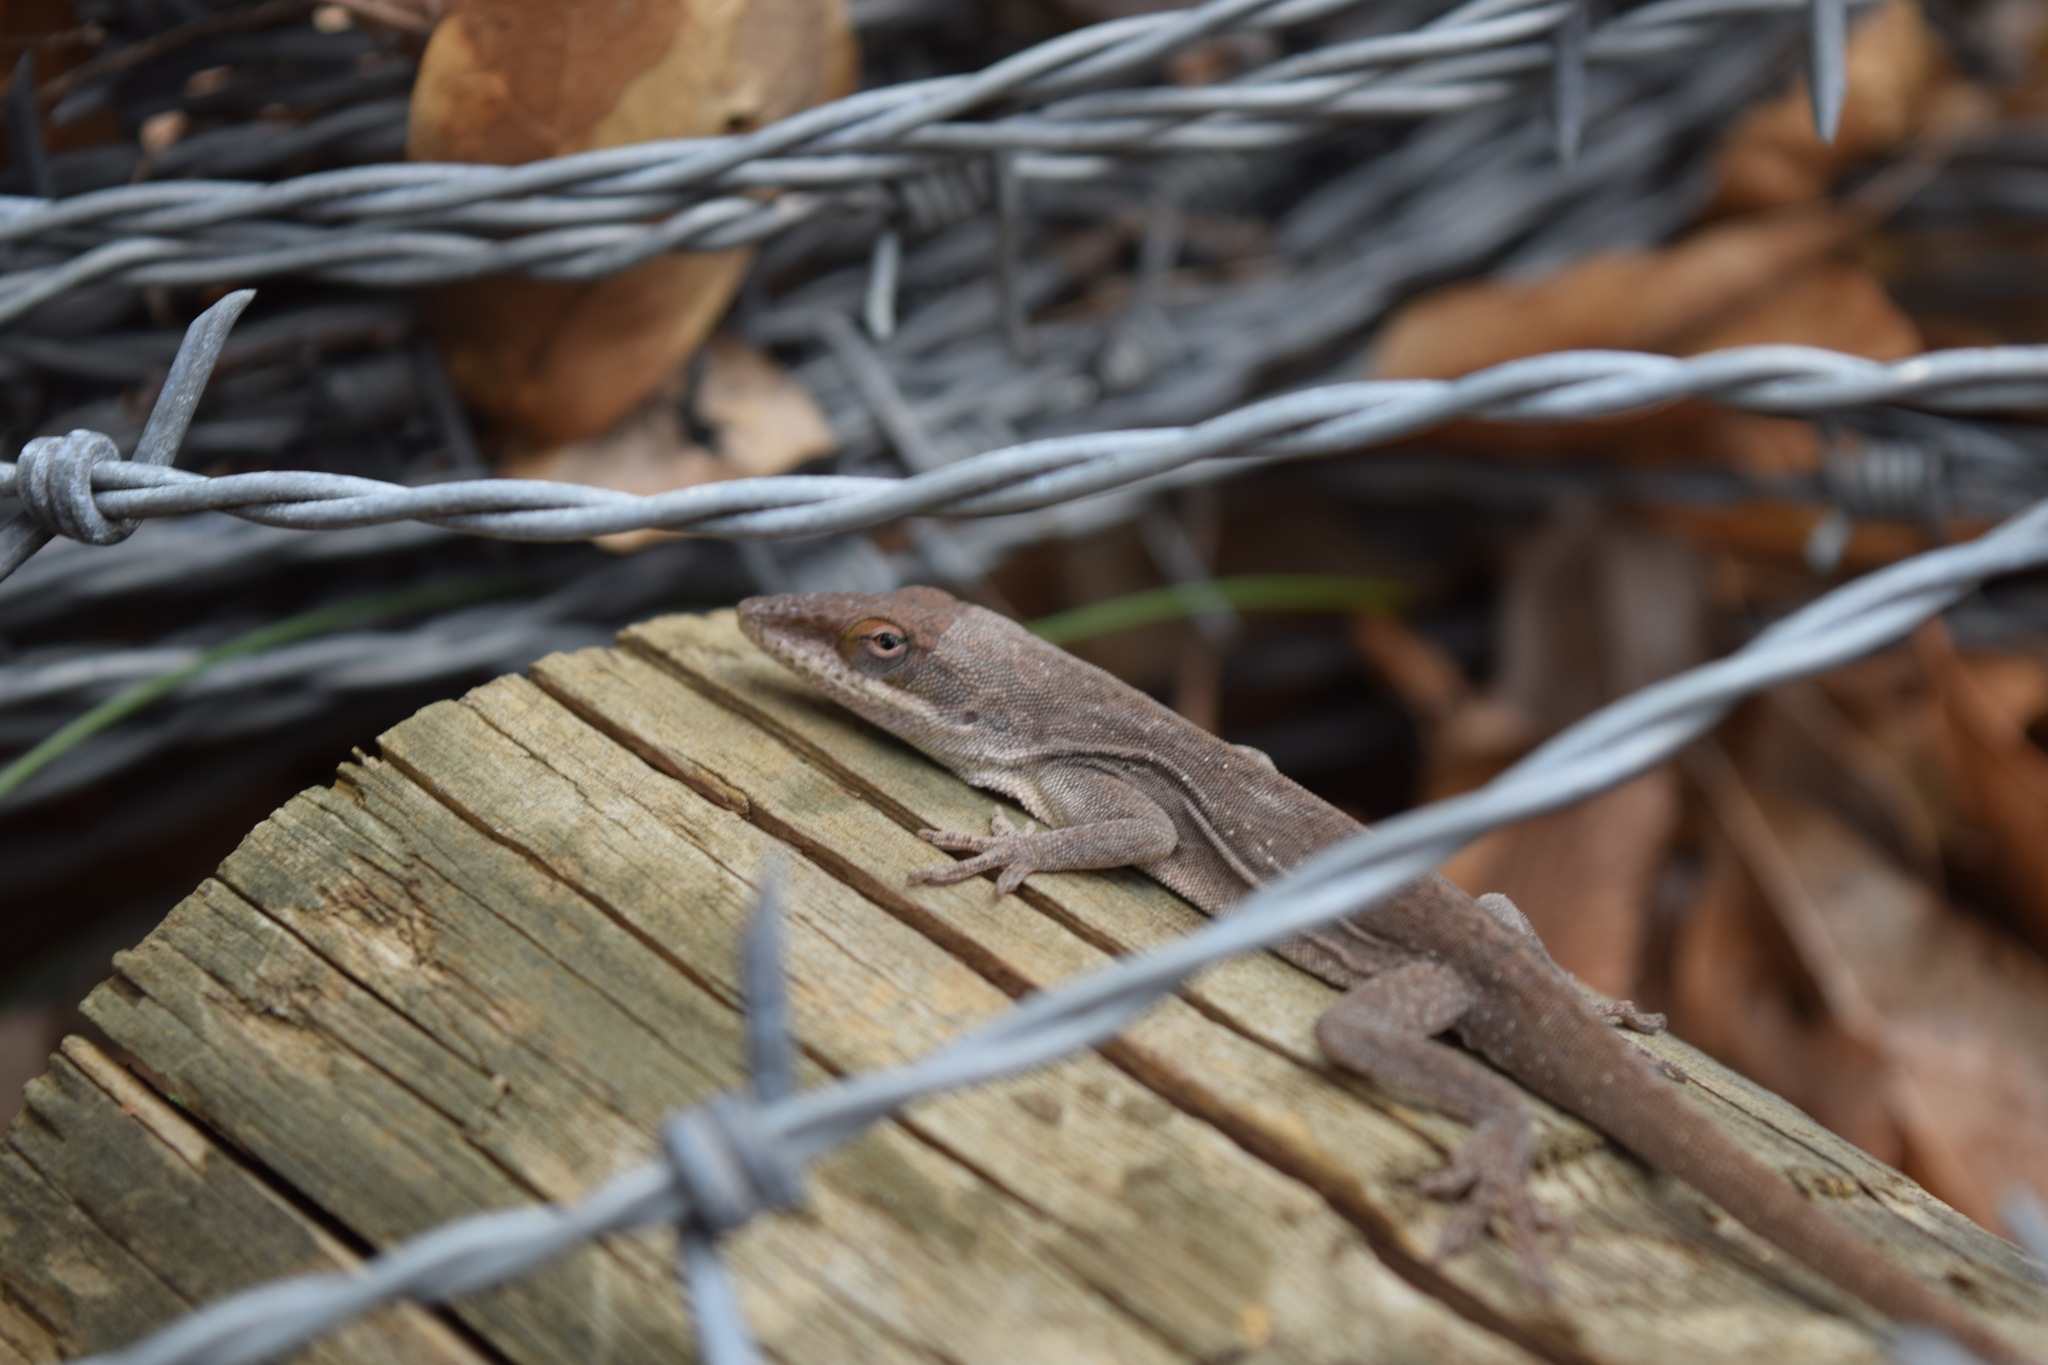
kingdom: Animalia
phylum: Chordata
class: Squamata
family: Dactyloidae
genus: Anolis
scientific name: Anolis carolinensis
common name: Green anole
